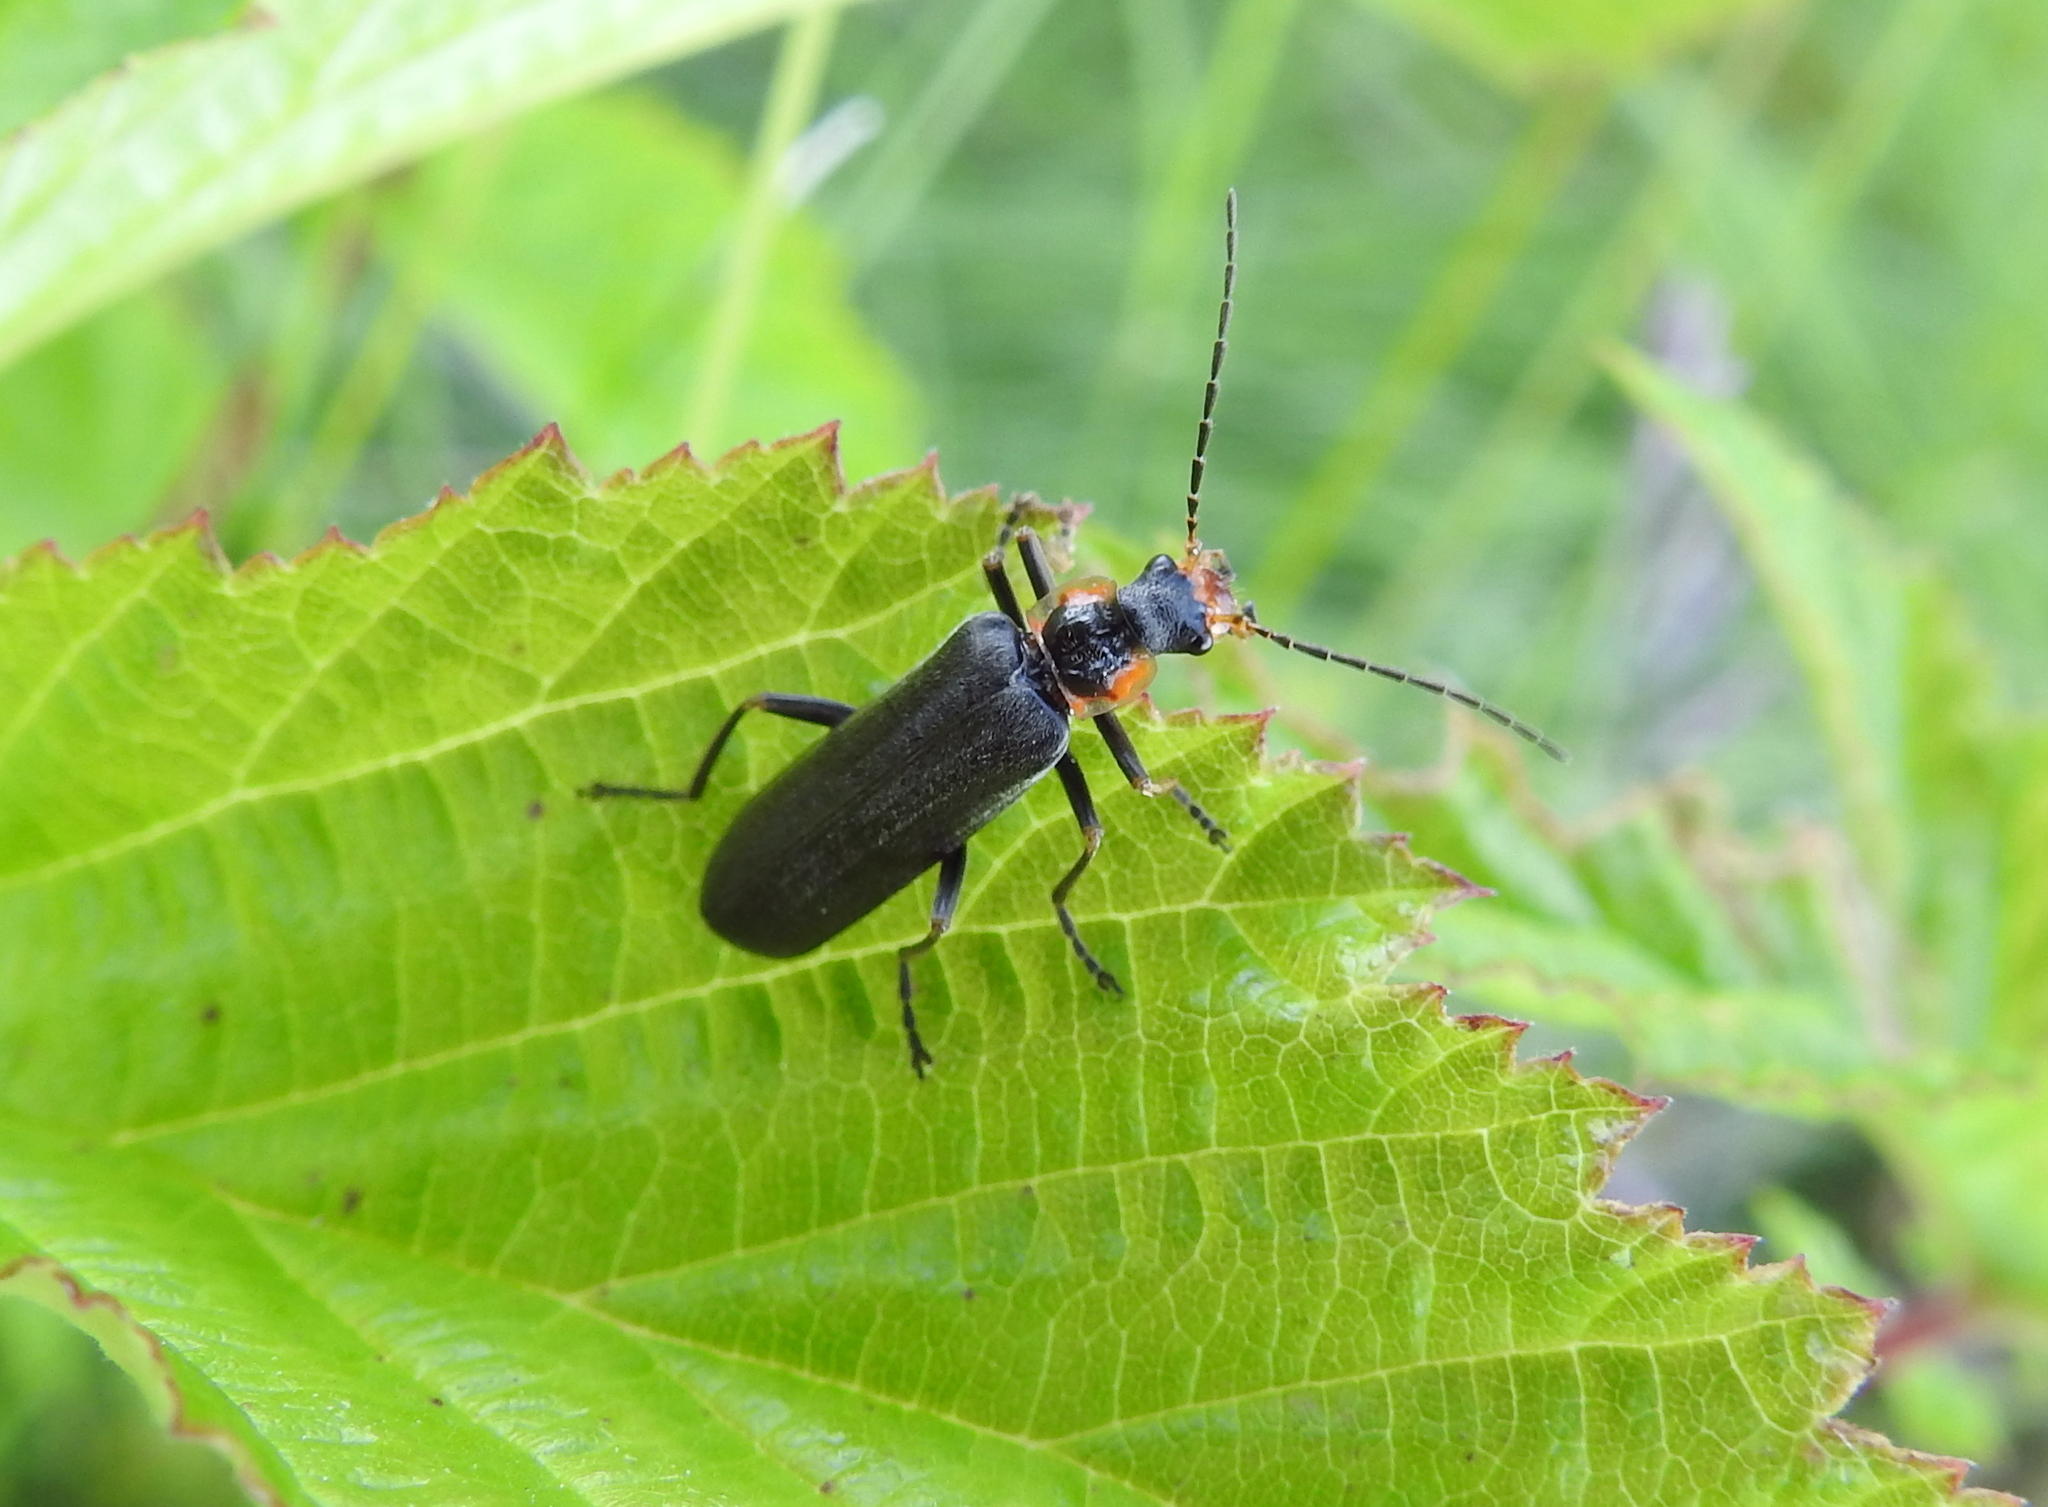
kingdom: Animalia
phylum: Arthropoda
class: Insecta
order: Coleoptera
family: Cantharidae
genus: Podabrus
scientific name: Podabrus alpinus
